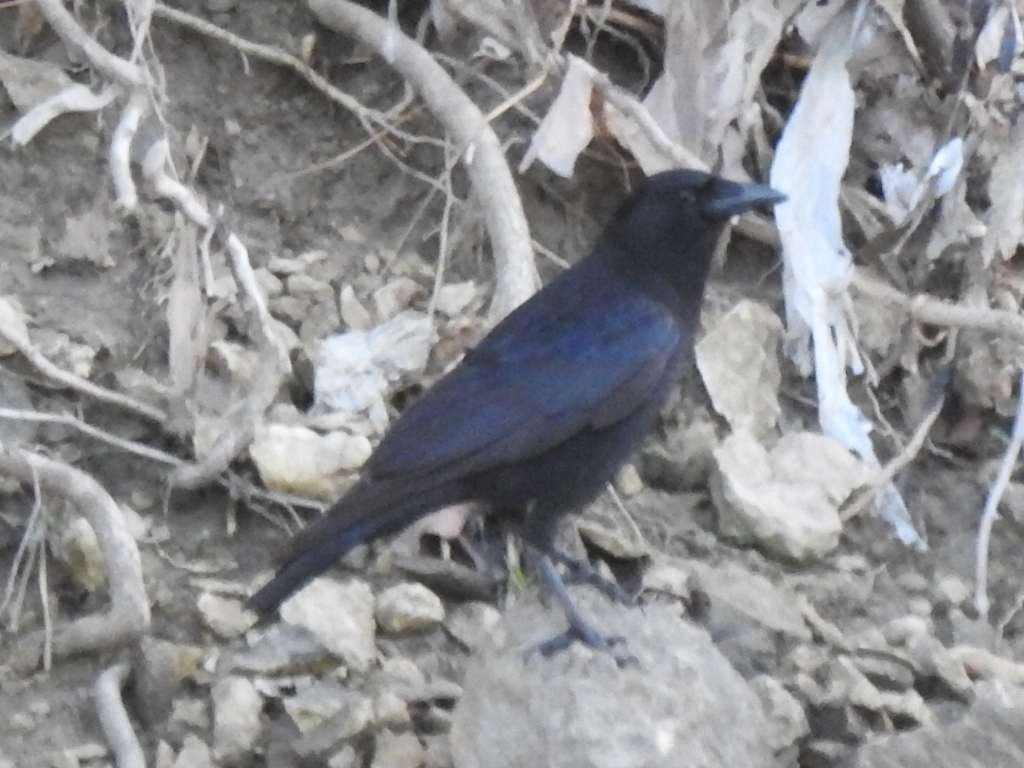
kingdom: Animalia
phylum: Chordata
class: Aves
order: Passeriformes
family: Corvidae
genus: Corvus
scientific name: Corvus brachyrhynchos
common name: American crow
